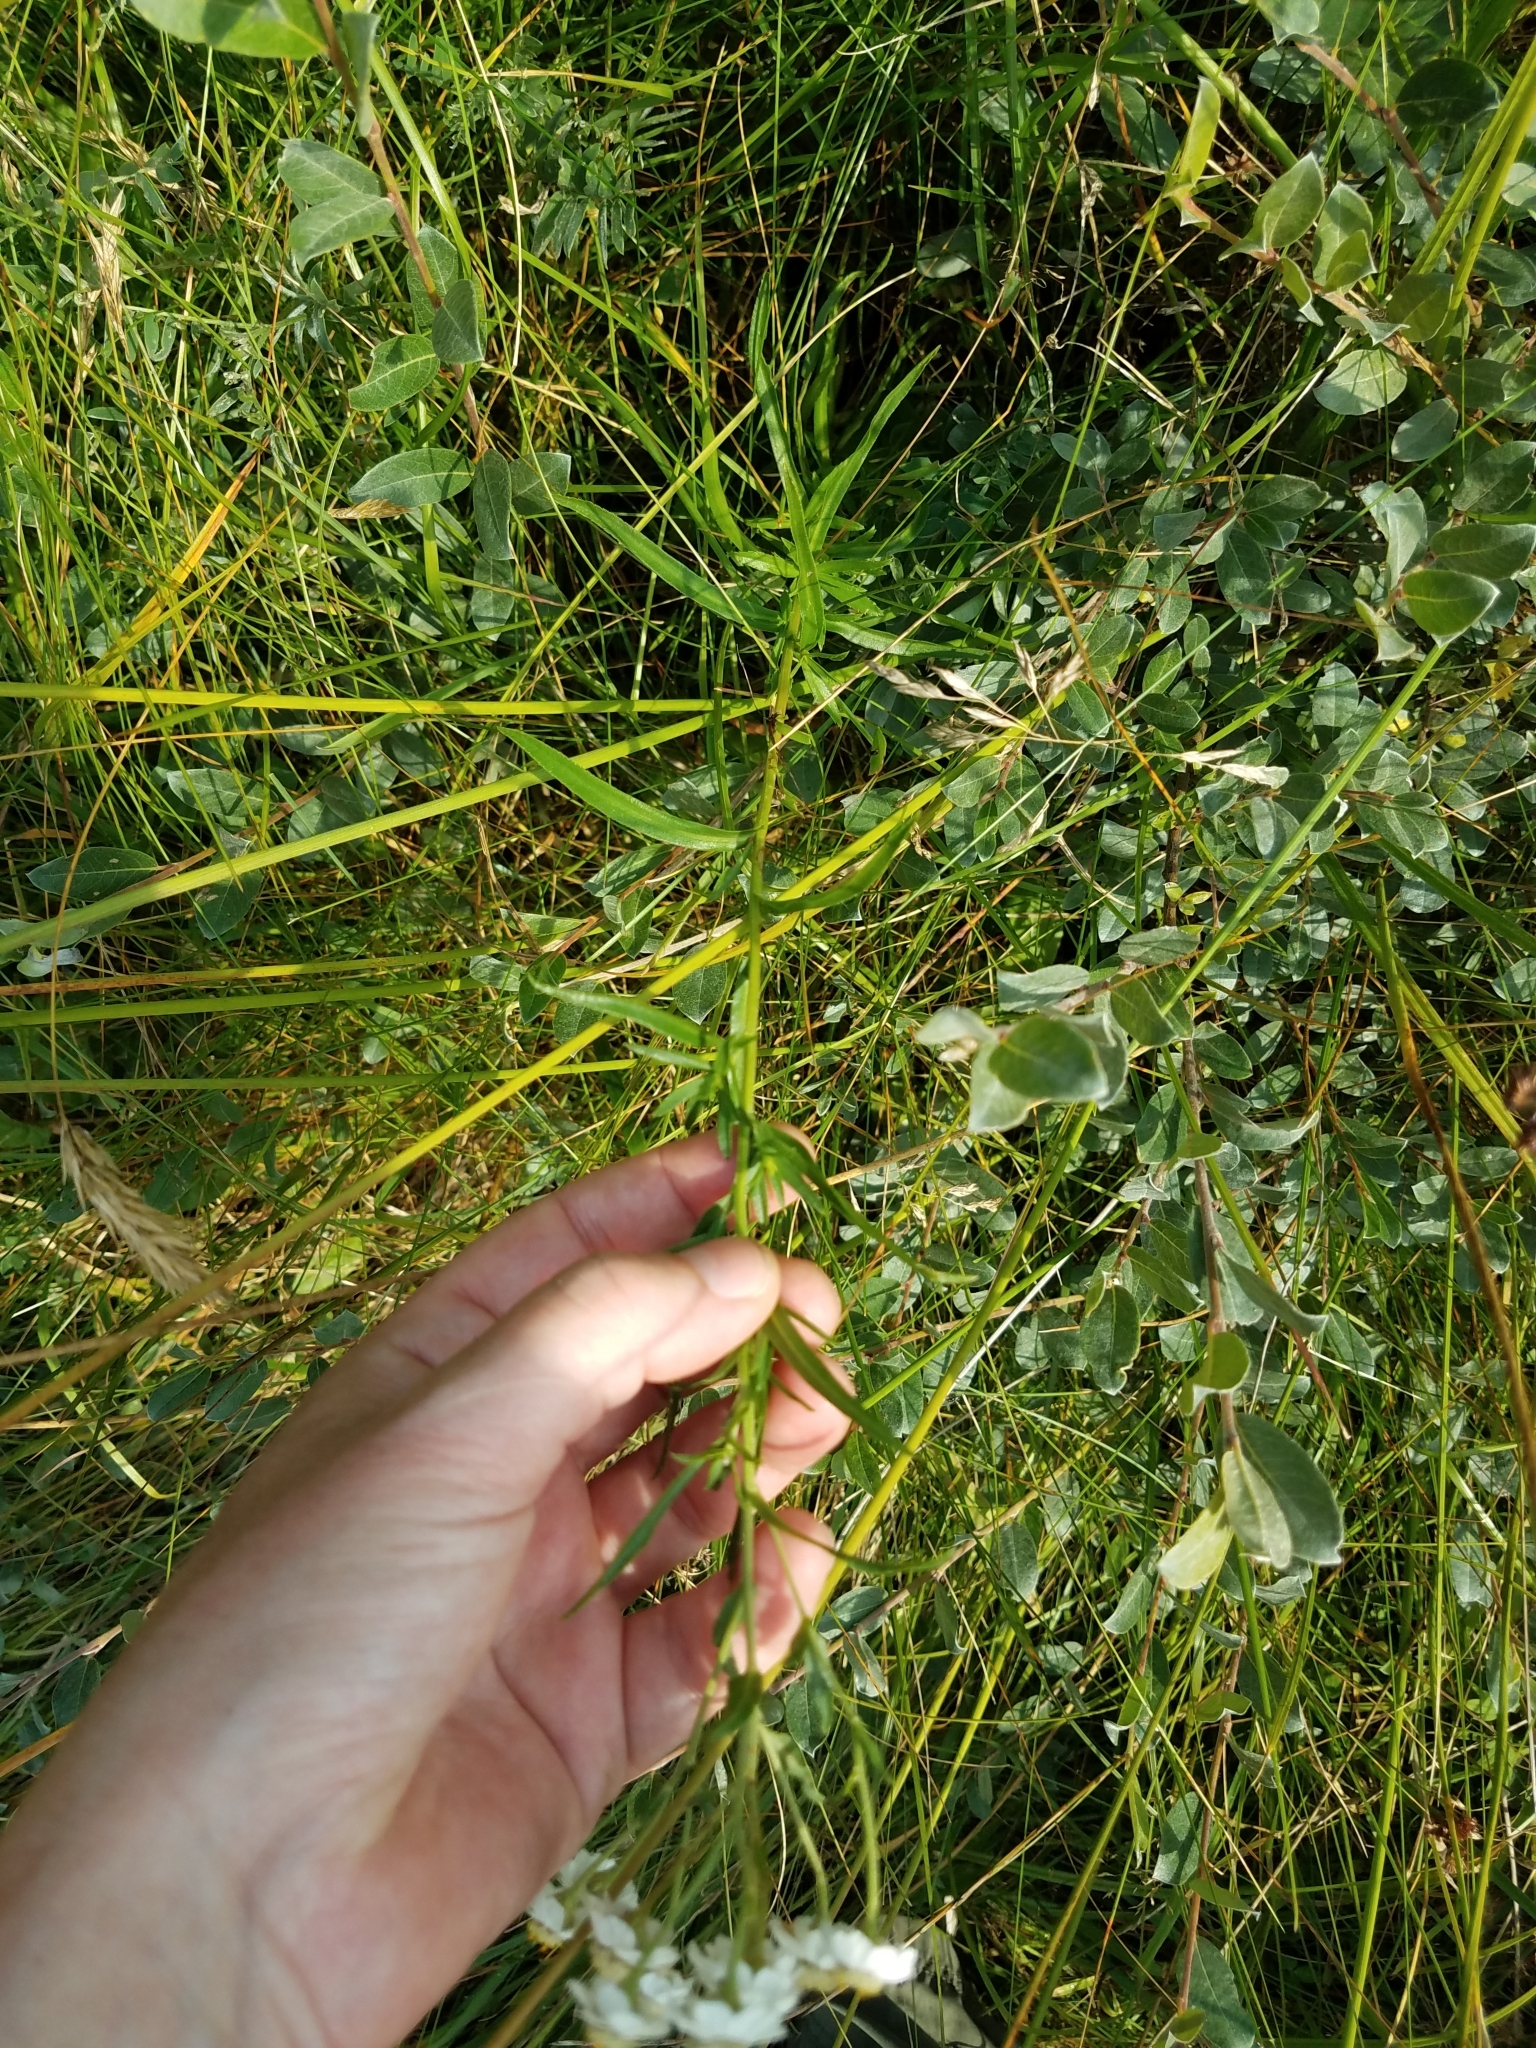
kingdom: Plantae
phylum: Tracheophyta
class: Magnoliopsida
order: Asterales
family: Asteraceae
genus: Achillea
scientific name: Achillea ptarmica
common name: Sneezeweed
